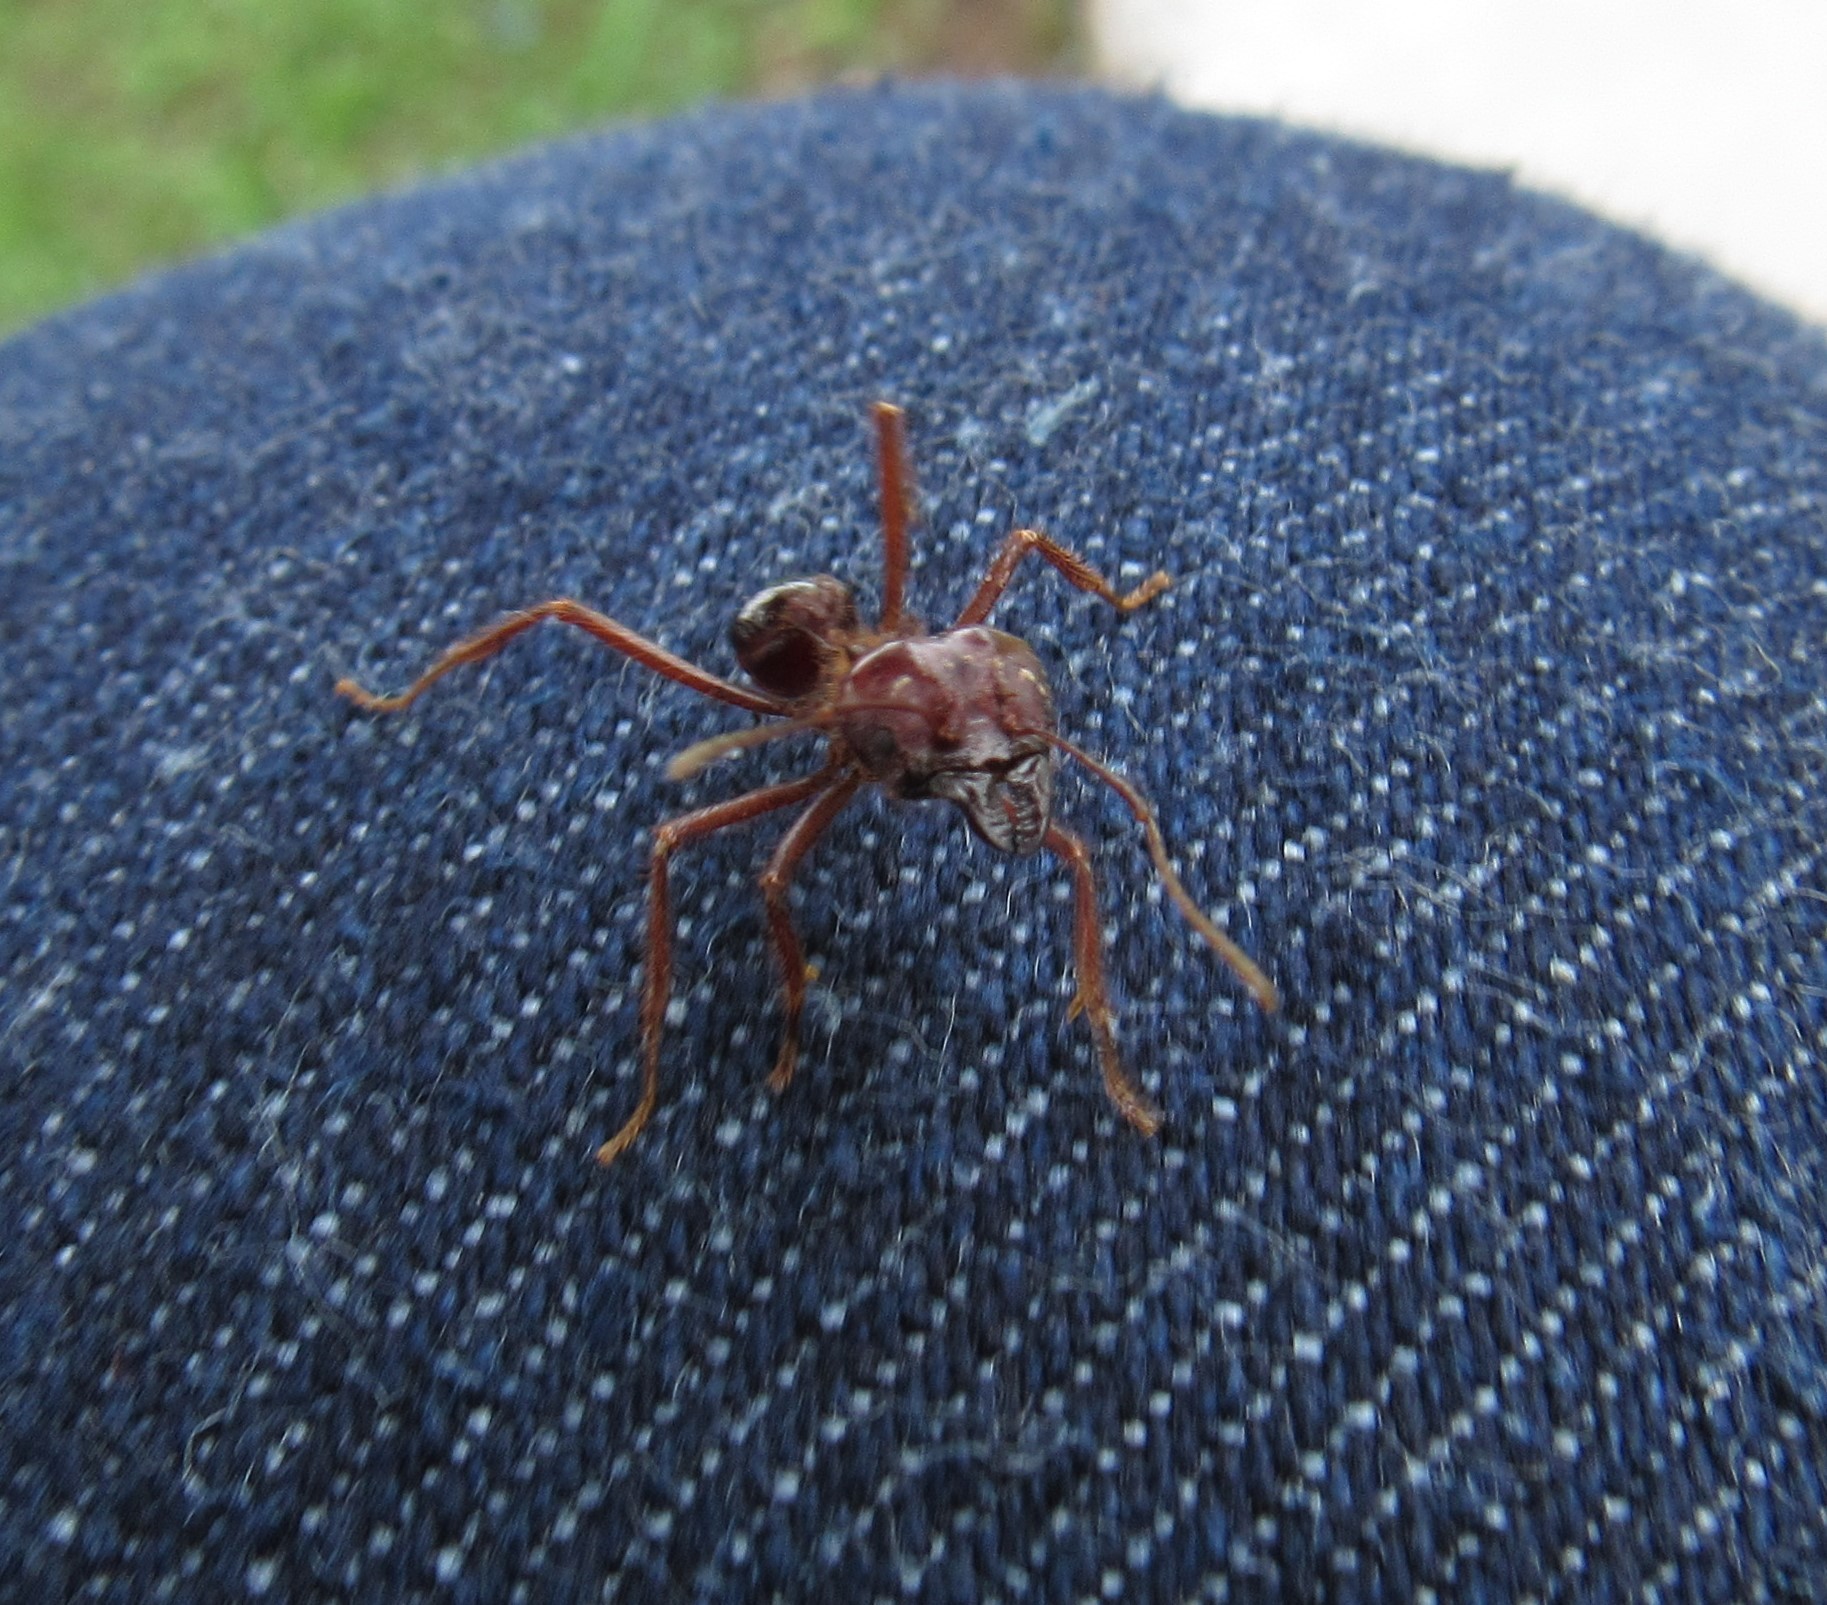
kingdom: Animalia
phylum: Arthropoda
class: Insecta
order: Hymenoptera
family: Formicidae
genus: Atta
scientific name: Atta mexicana
